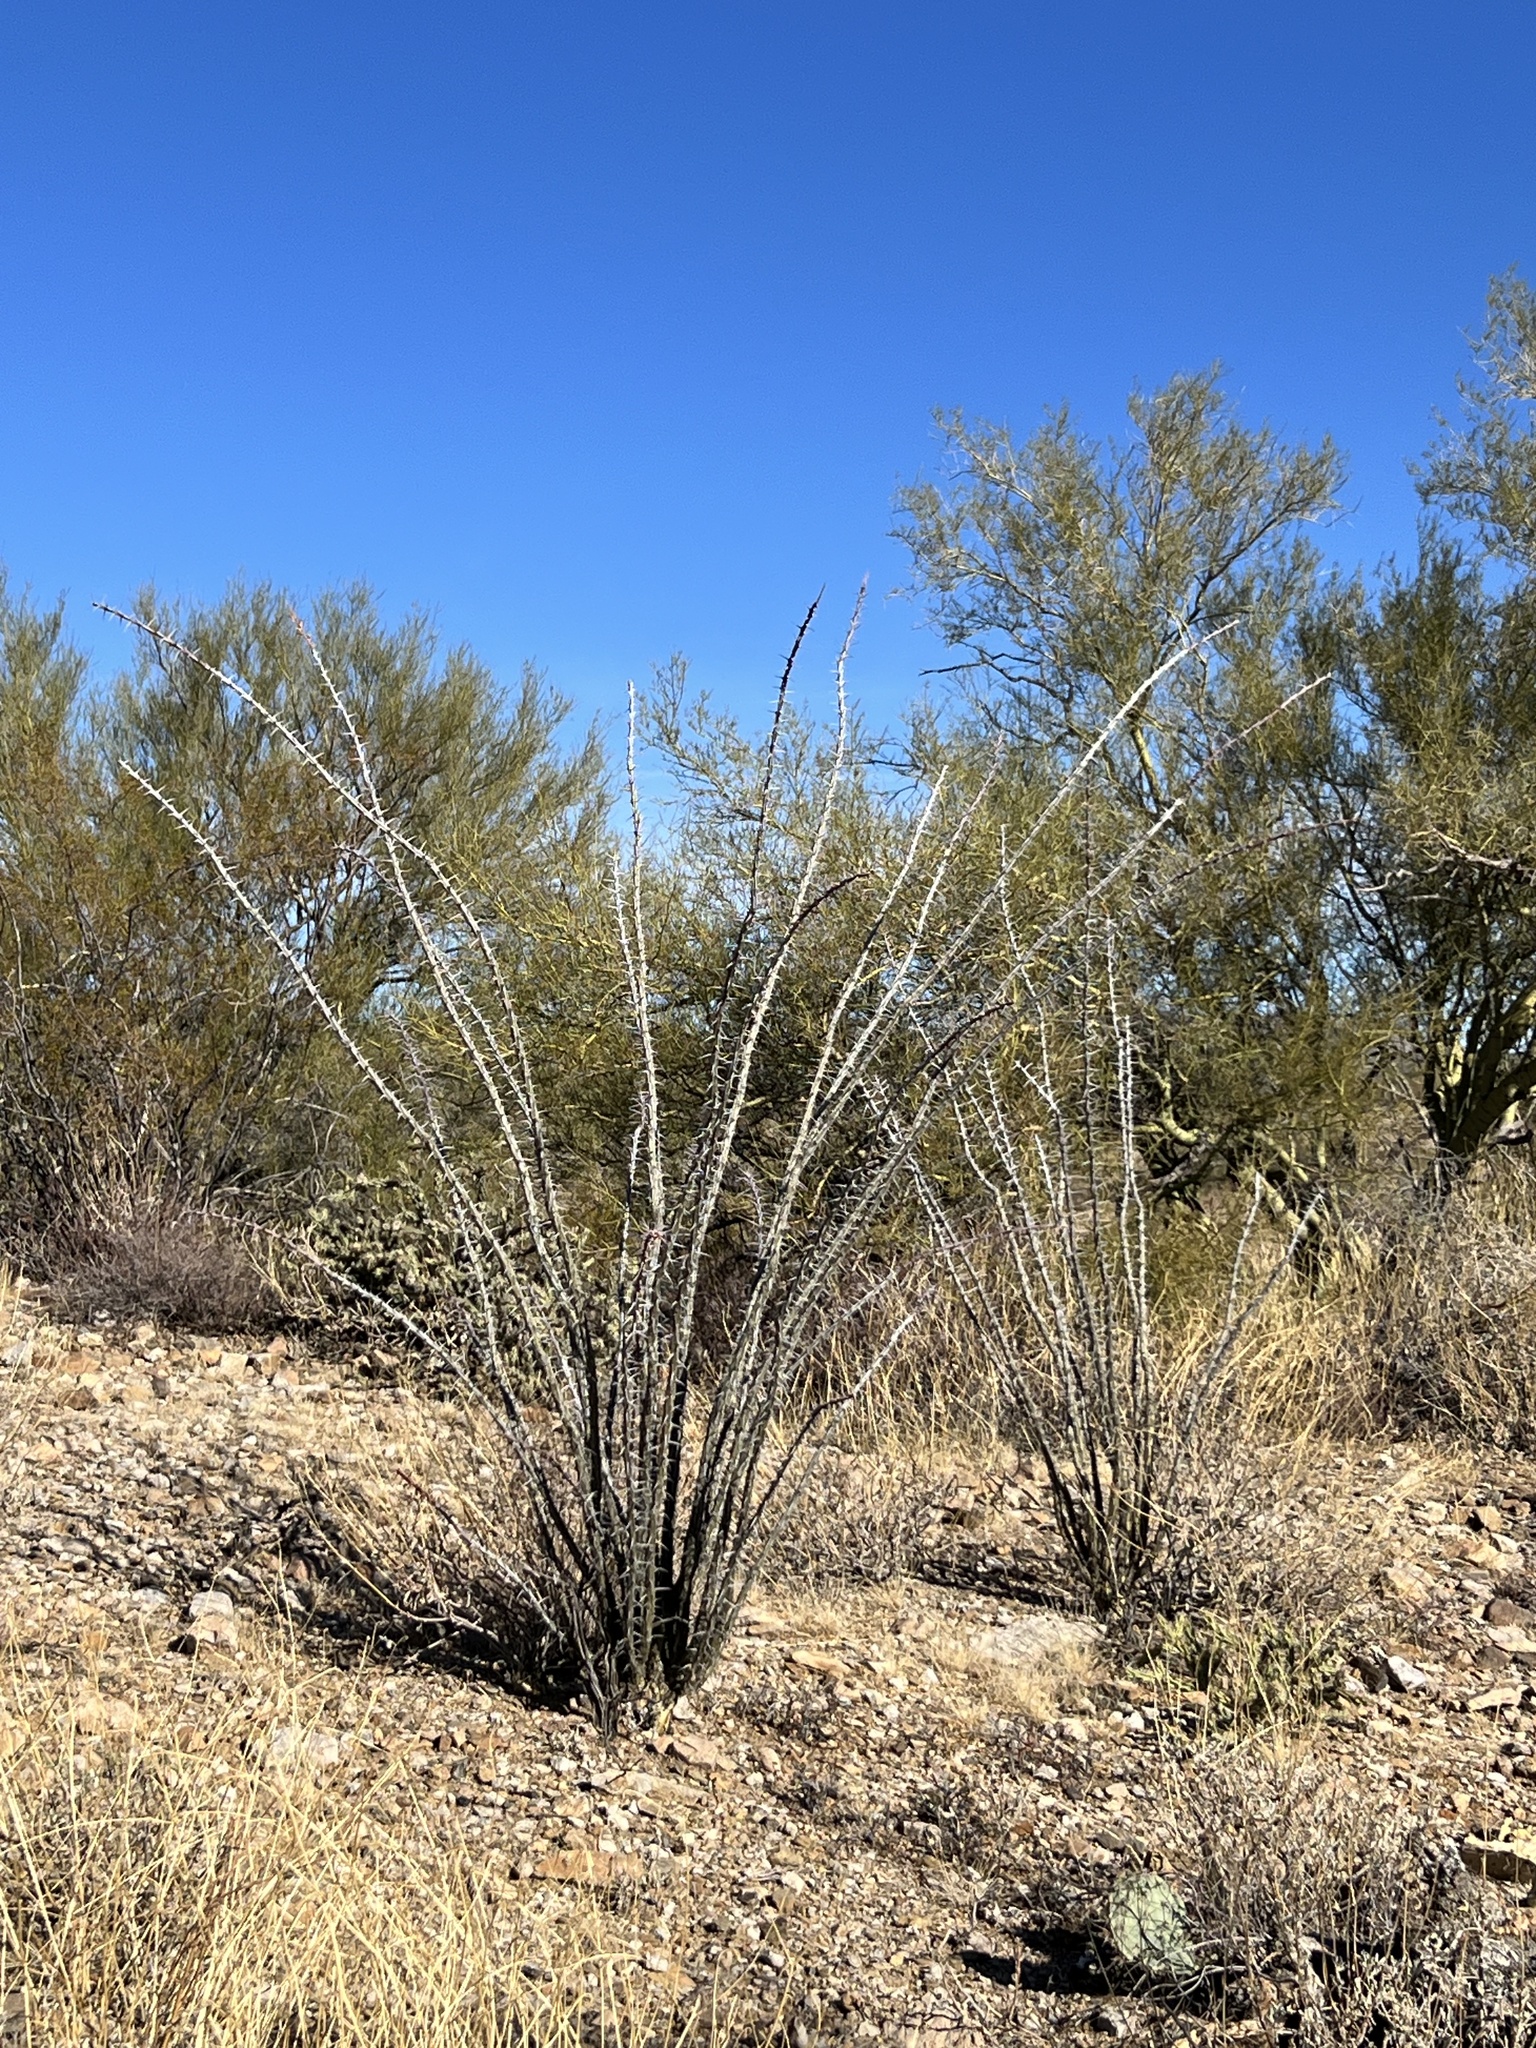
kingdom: Plantae
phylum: Tracheophyta
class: Magnoliopsida
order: Ericales
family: Fouquieriaceae
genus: Fouquieria
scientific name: Fouquieria splendens
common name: Vine-cactus
